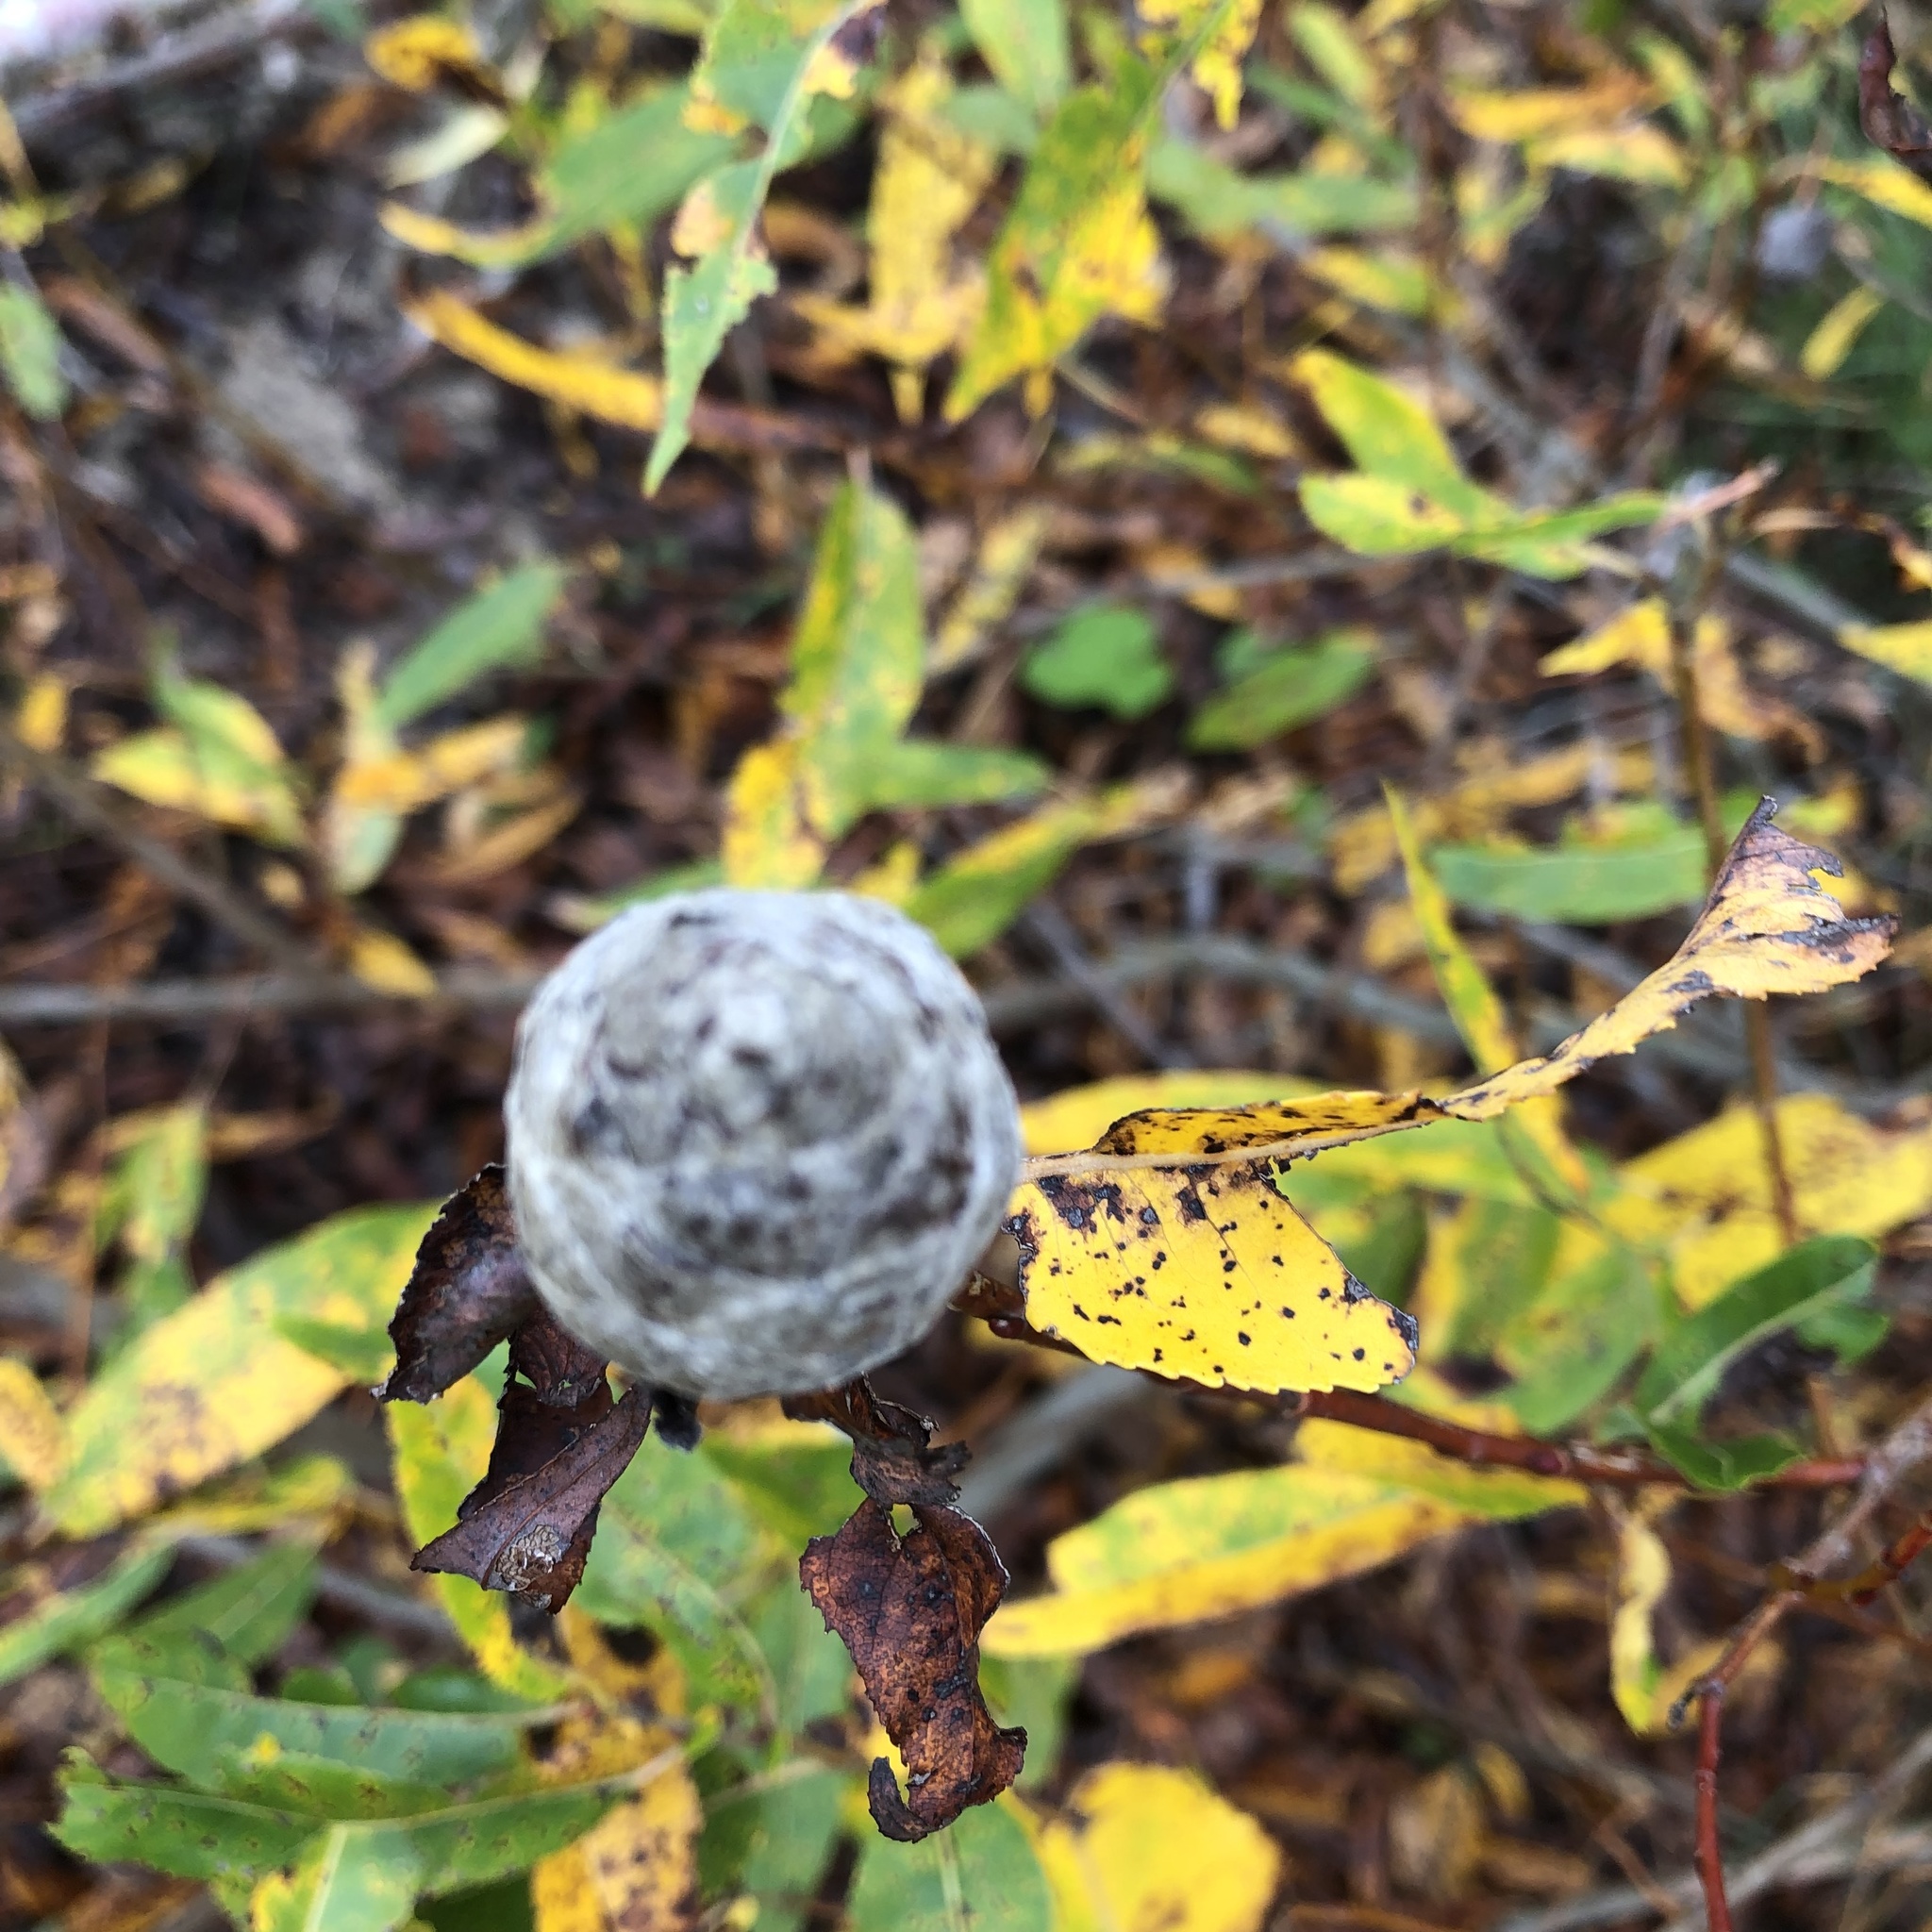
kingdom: Animalia
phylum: Arthropoda
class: Insecta
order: Diptera
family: Cecidomyiidae
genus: Rabdophaga
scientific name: Rabdophaga strobiloides
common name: Willow pinecone gall midge
